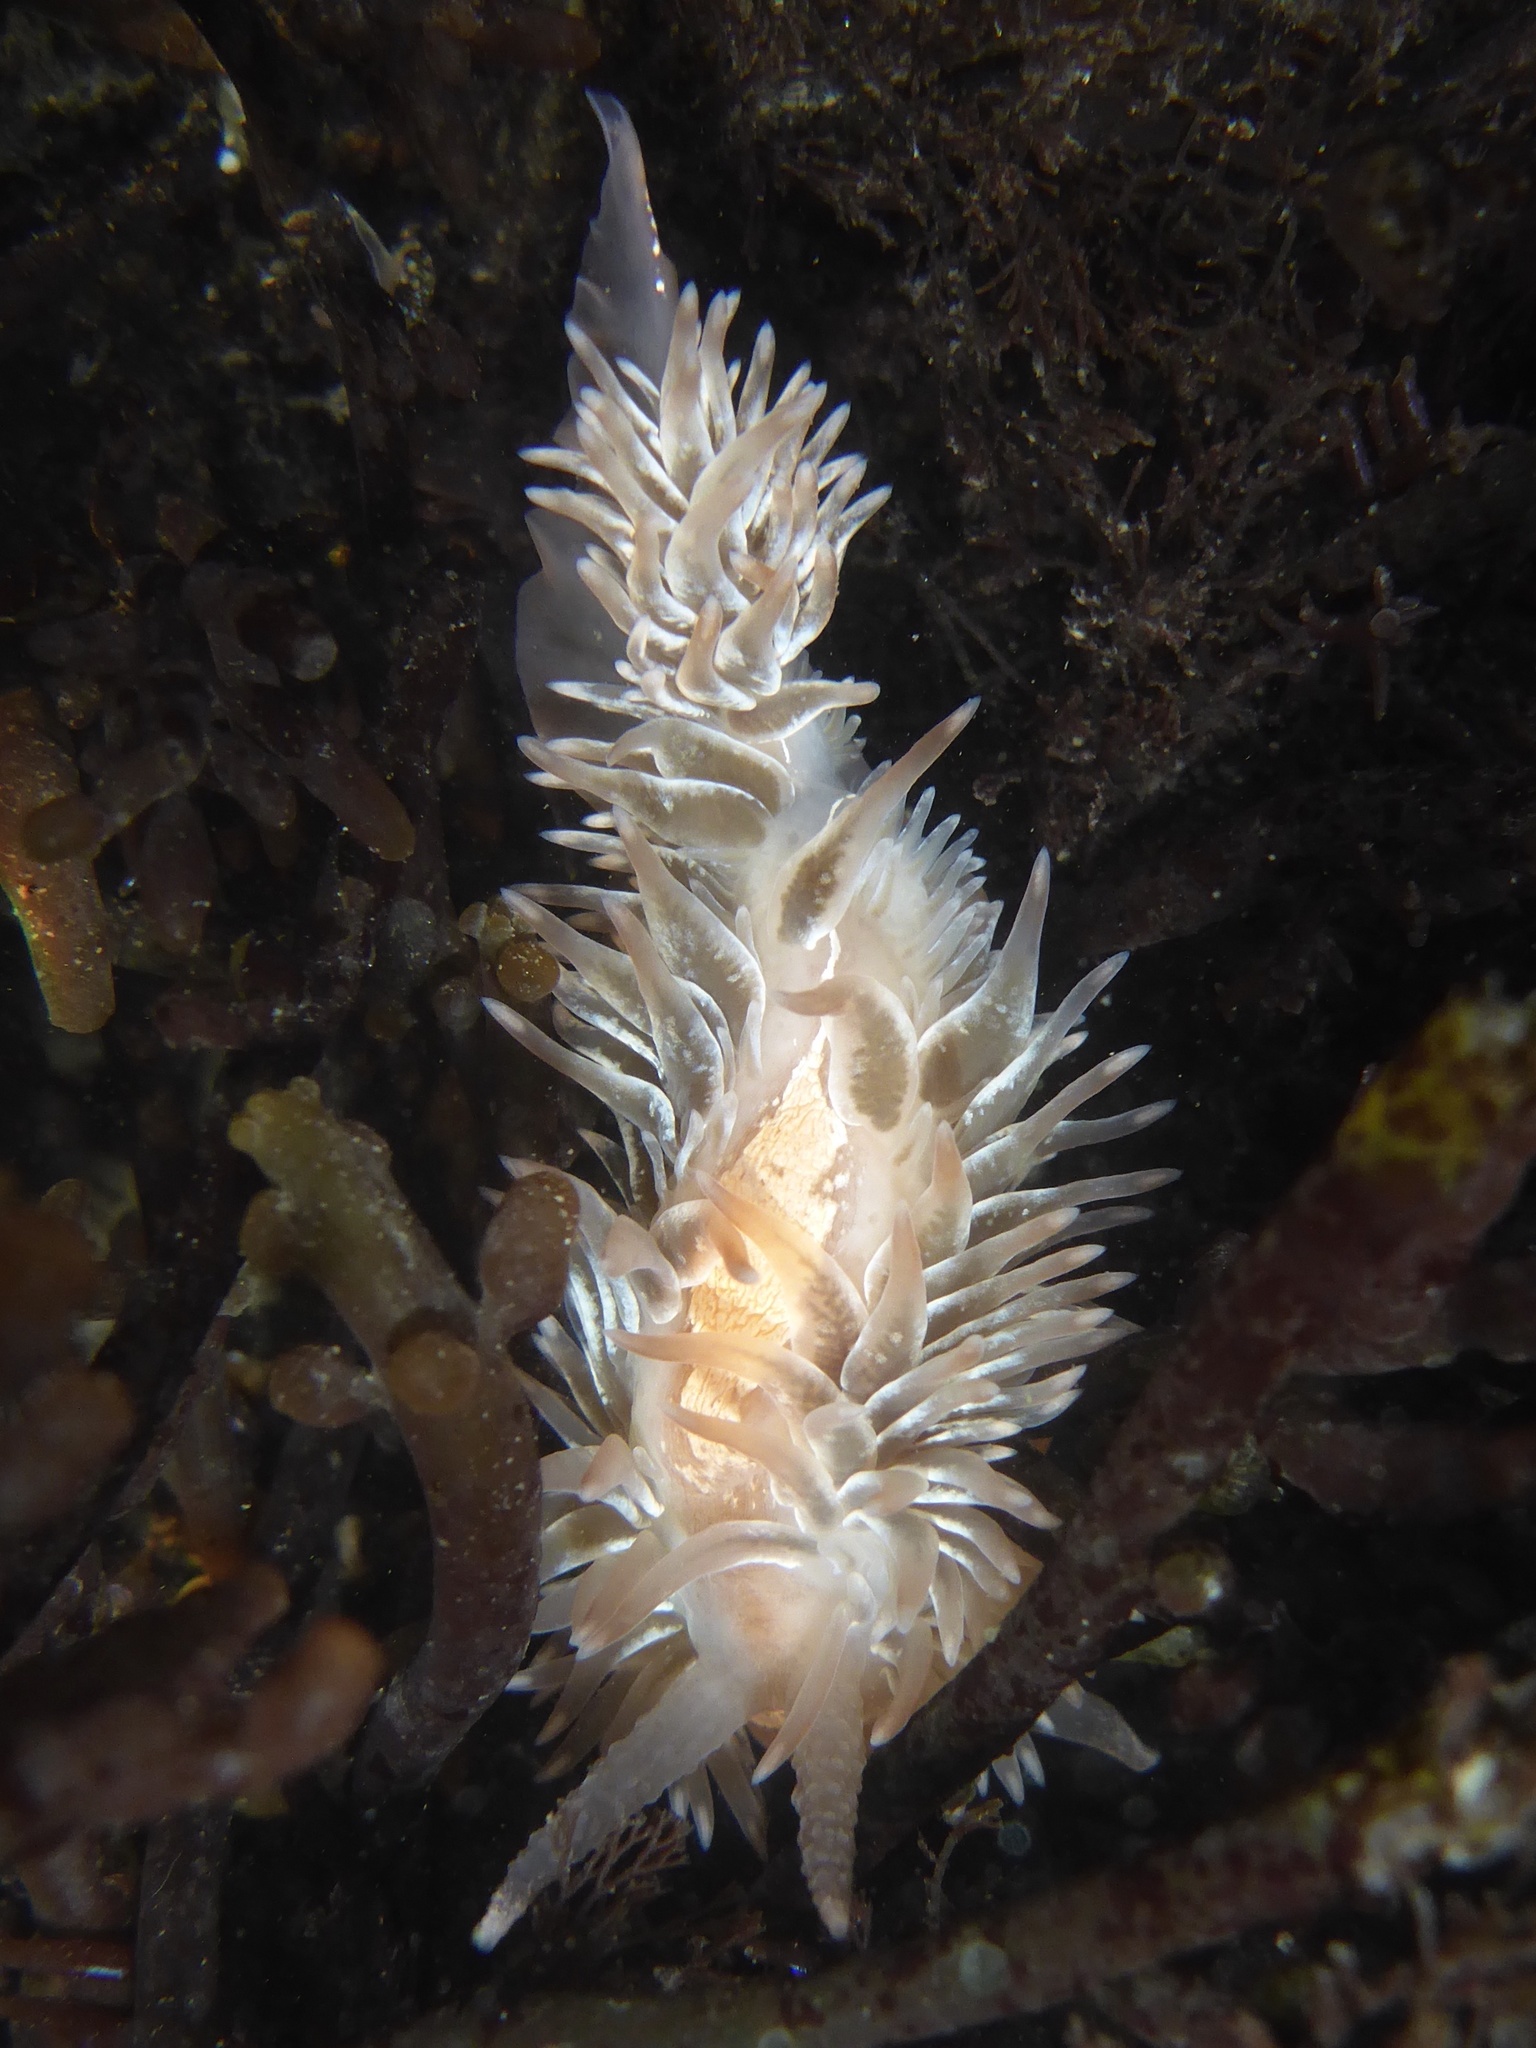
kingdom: Animalia
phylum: Mollusca
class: Gastropoda
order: Nudibranchia
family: Aeolidiidae
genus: Aeolidia
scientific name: Aeolidia loui
